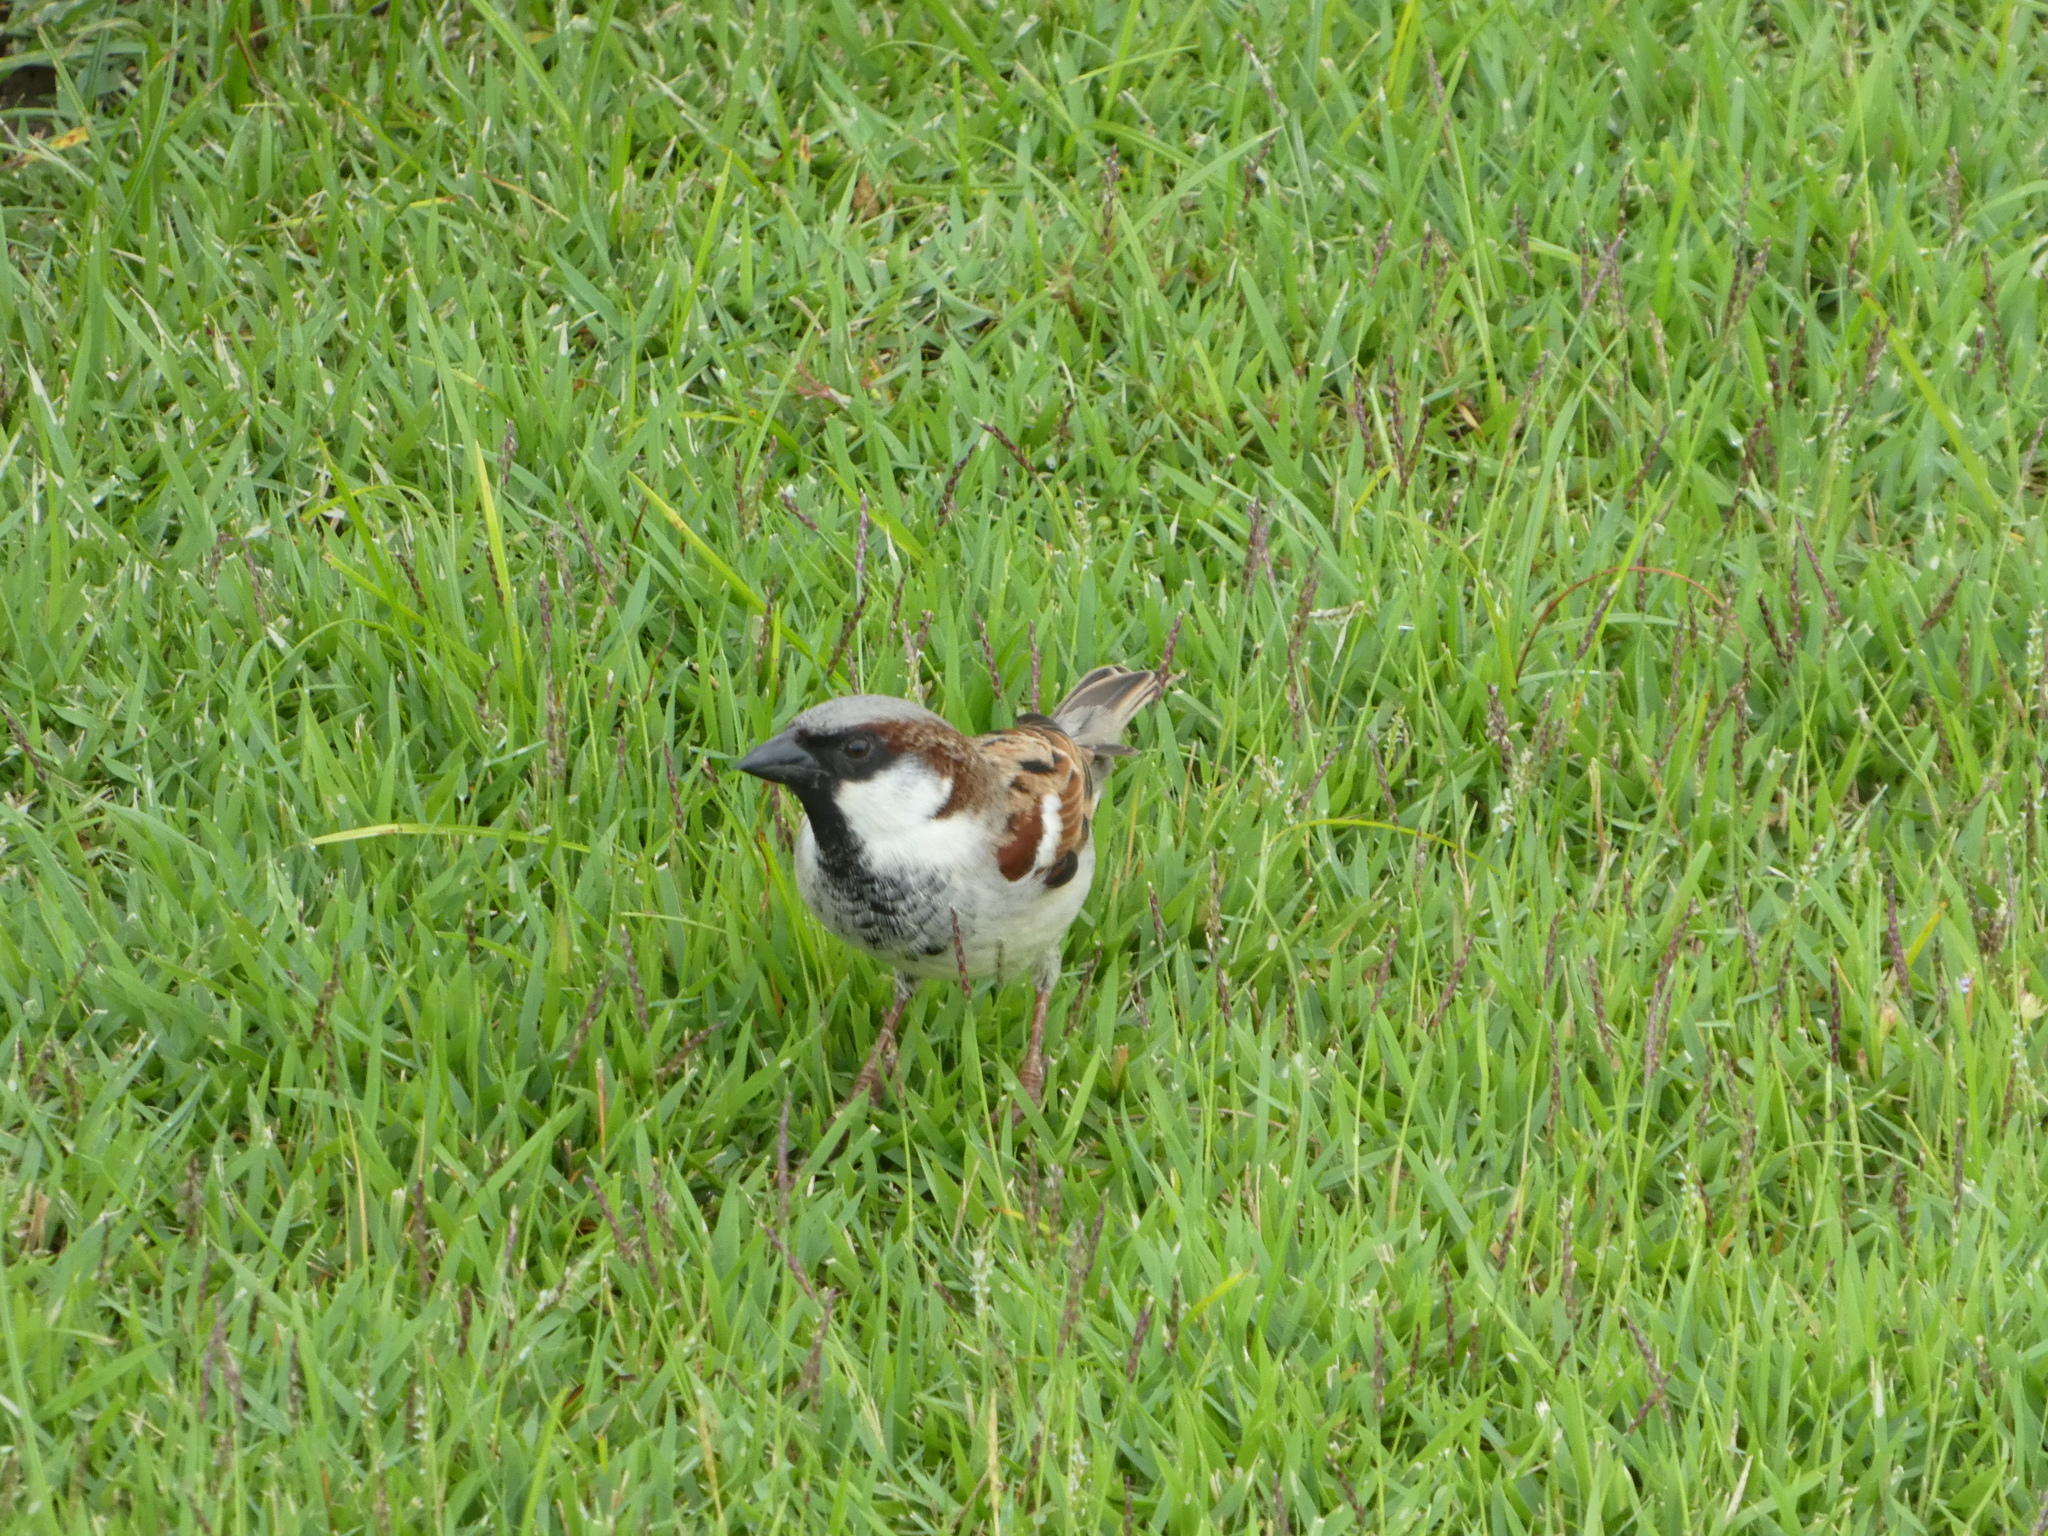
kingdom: Animalia
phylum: Chordata
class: Aves
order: Passeriformes
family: Passeridae
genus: Passer
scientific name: Passer domesticus
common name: House sparrow
